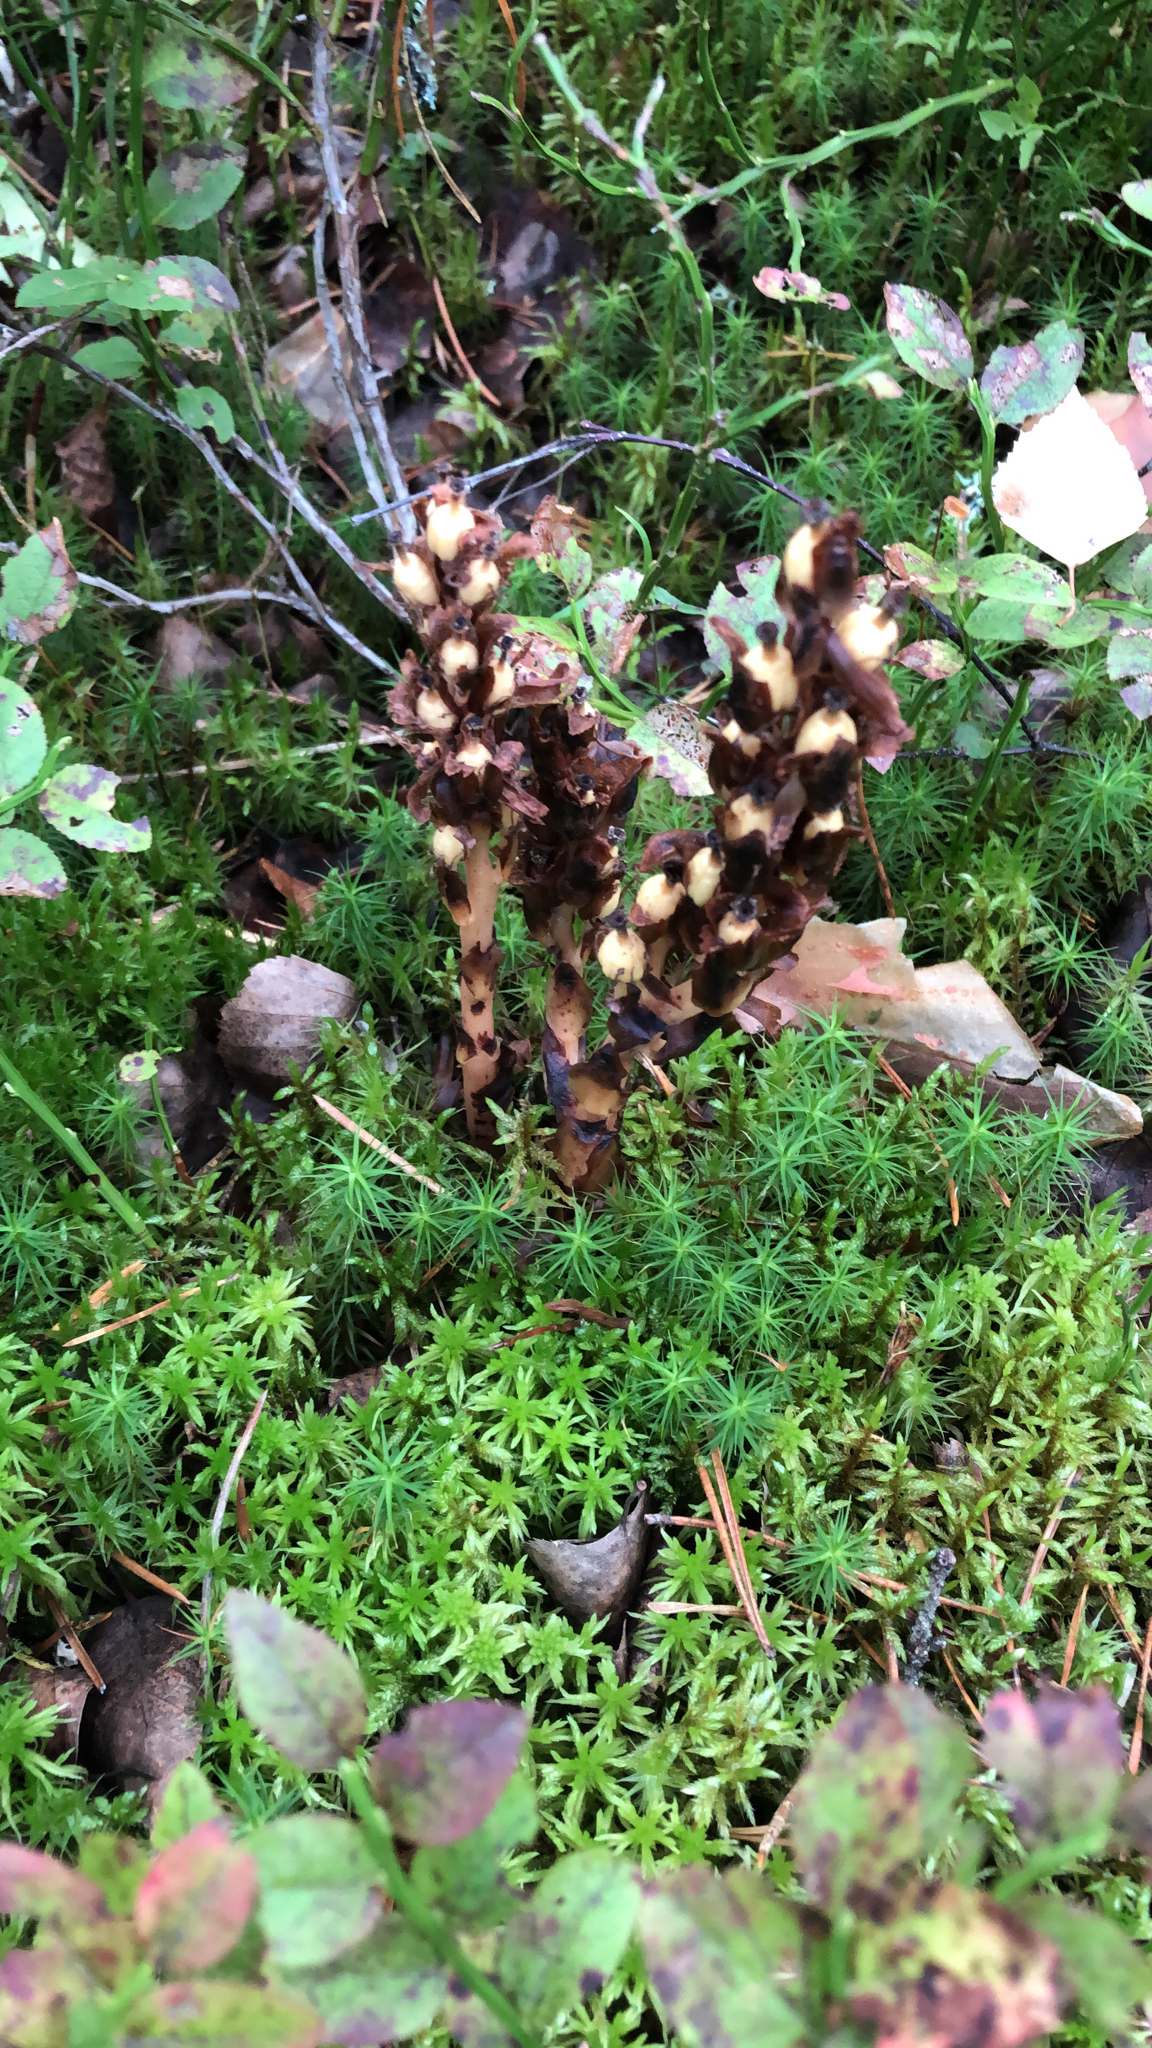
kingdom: Plantae
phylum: Tracheophyta
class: Magnoliopsida
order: Ericales
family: Ericaceae
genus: Hypopitys
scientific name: Hypopitys monotropa
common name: Yellow bird's-nest
